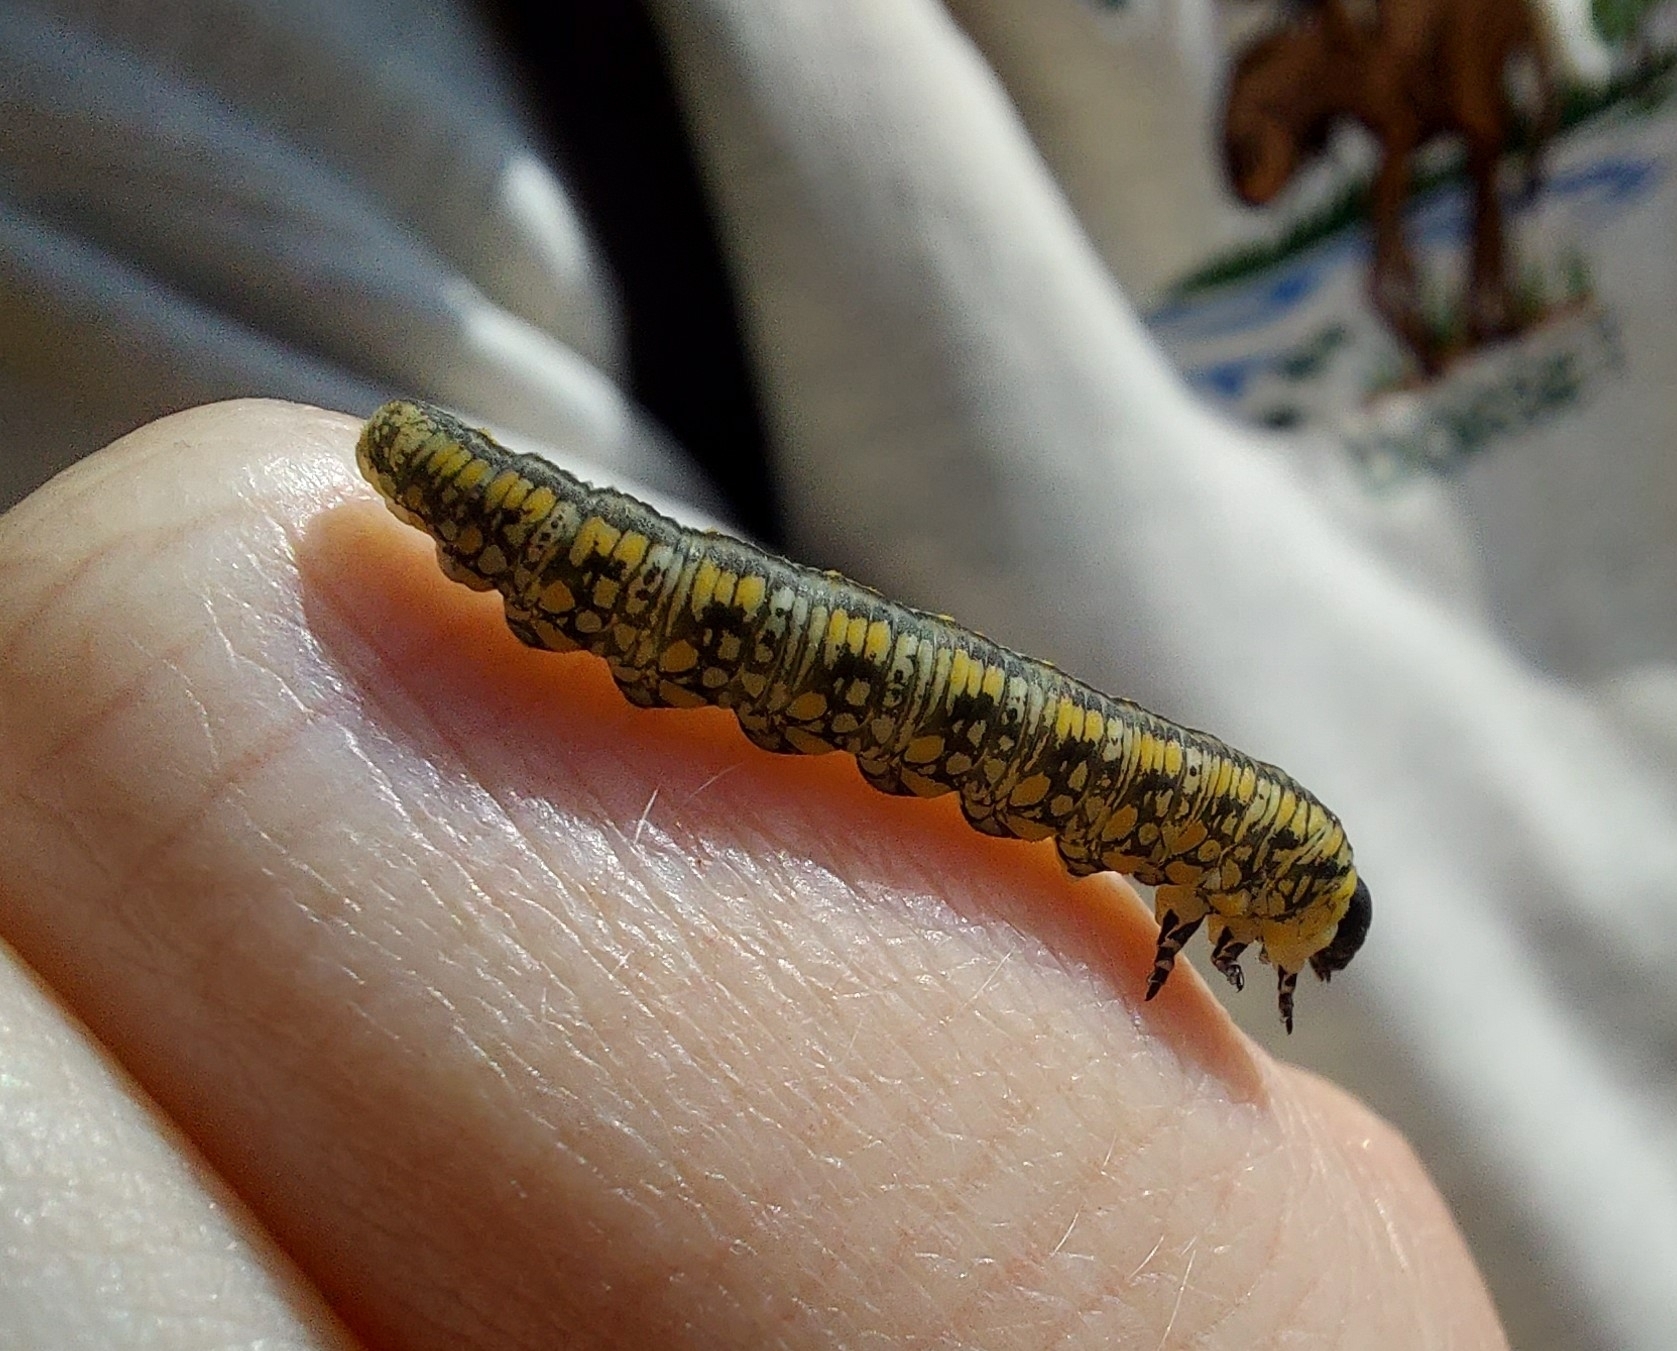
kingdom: Animalia
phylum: Arthropoda
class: Insecta
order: Hymenoptera
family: Diprionidae
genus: Diprion
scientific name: Diprion similis
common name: Pine sawfly
